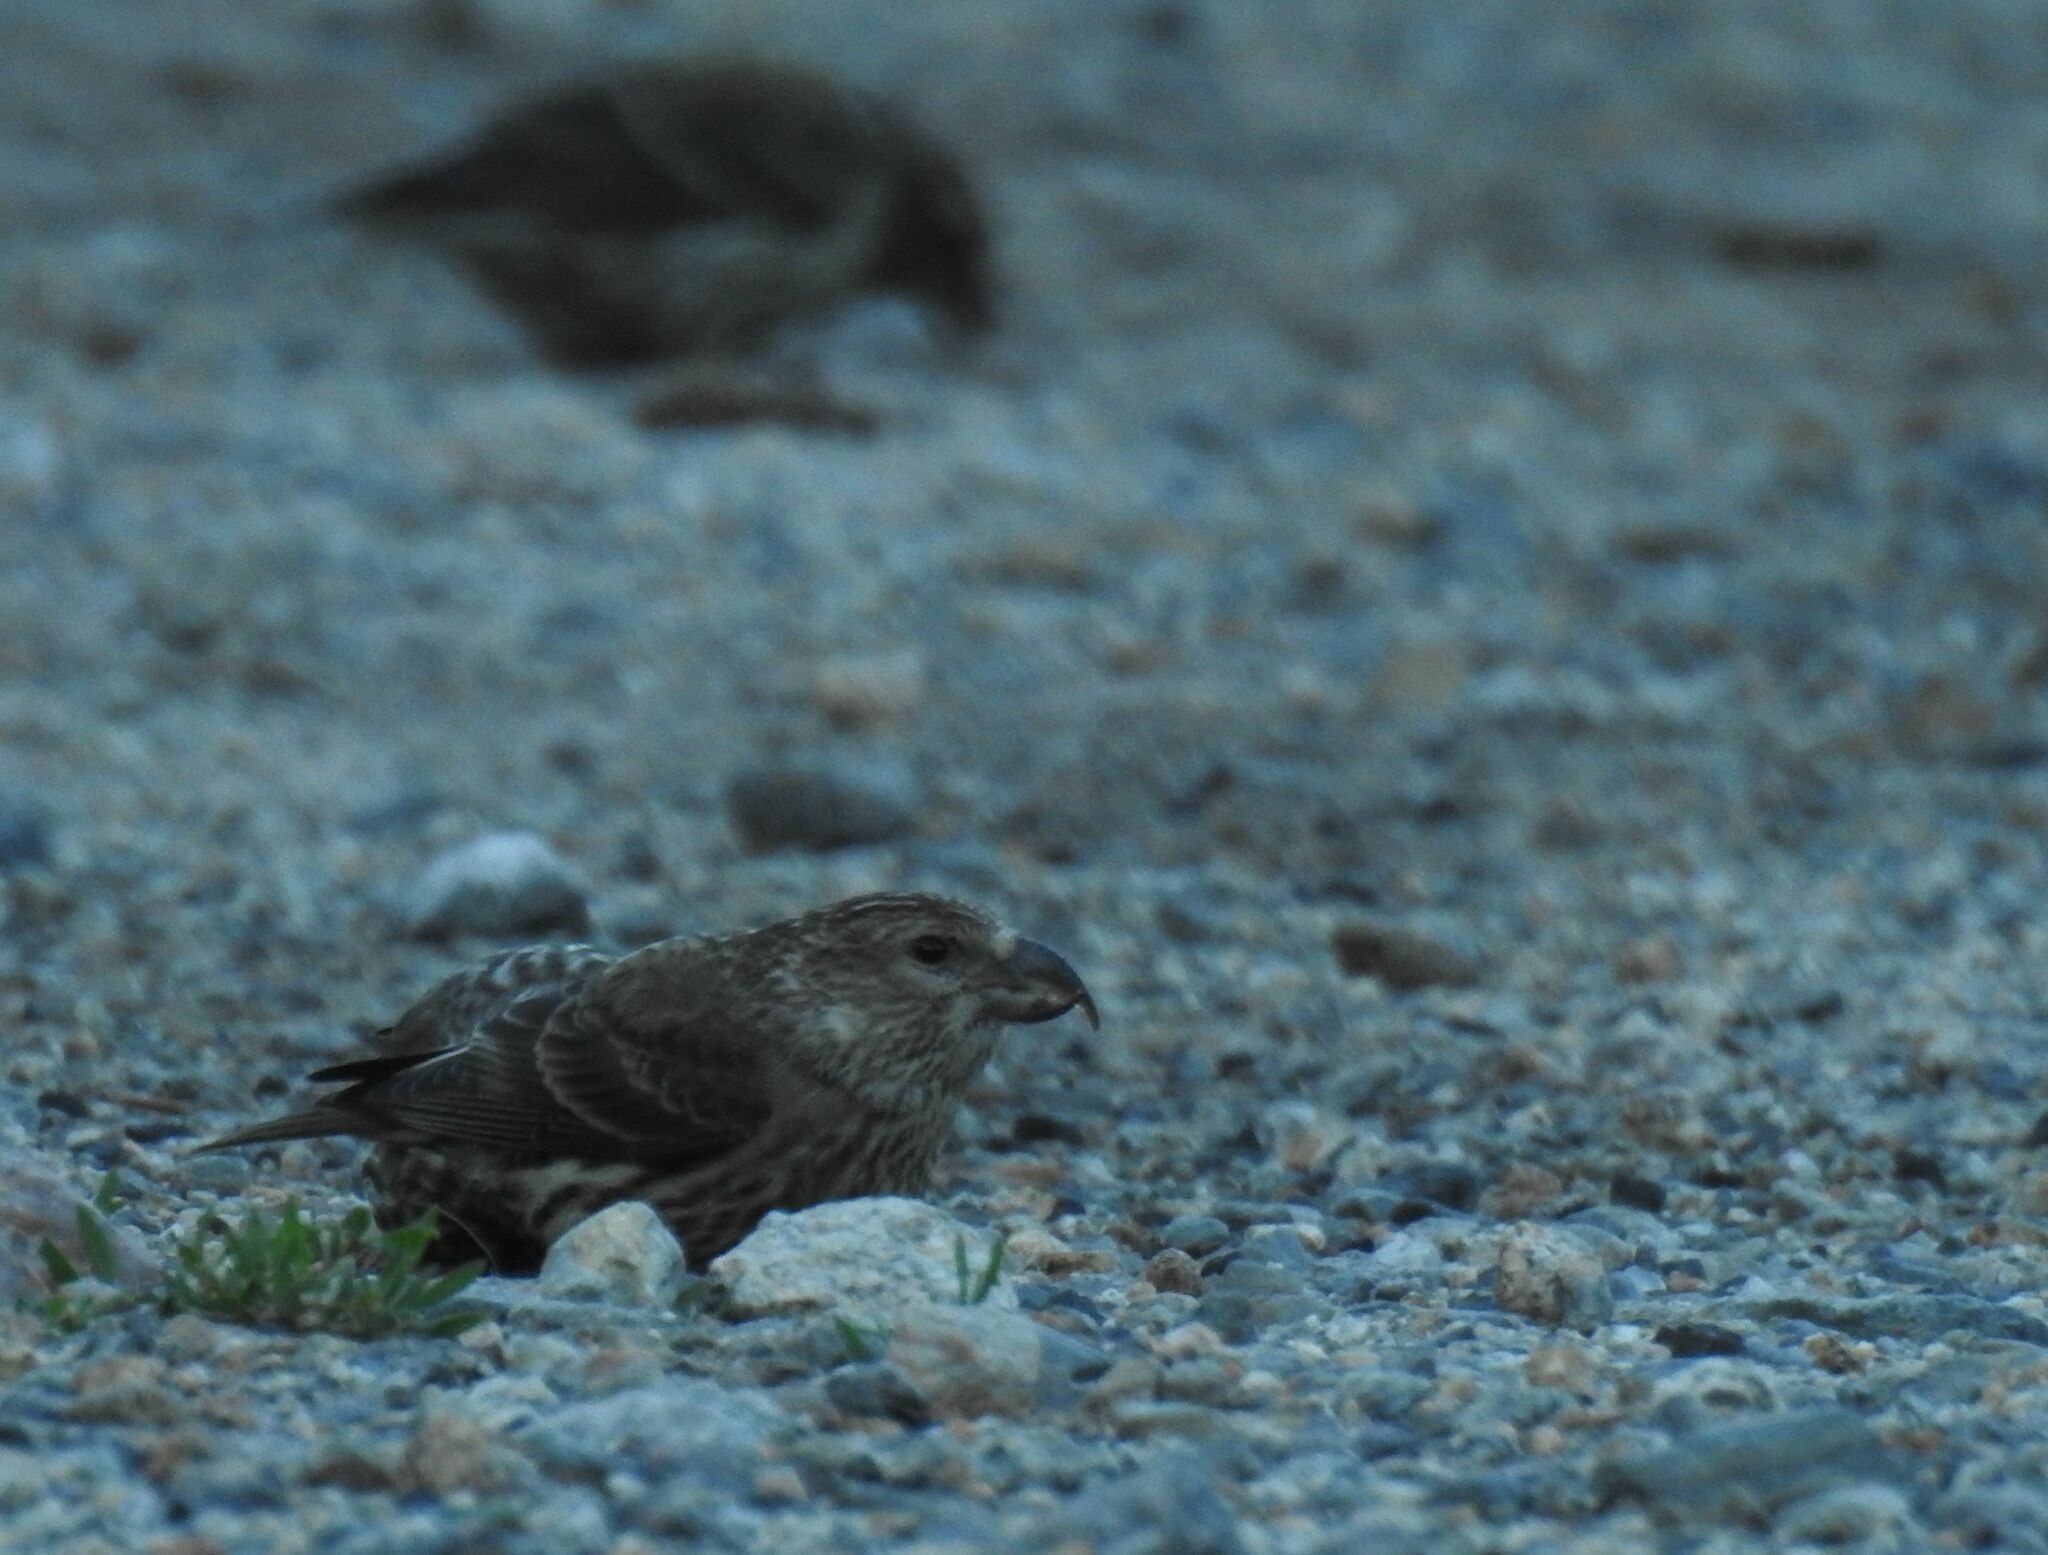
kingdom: Animalia
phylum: Chordata
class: Aves
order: Passeriformes
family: Fringillidae
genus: Loxia
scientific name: Loxia curvirostra
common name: Red crossbill
